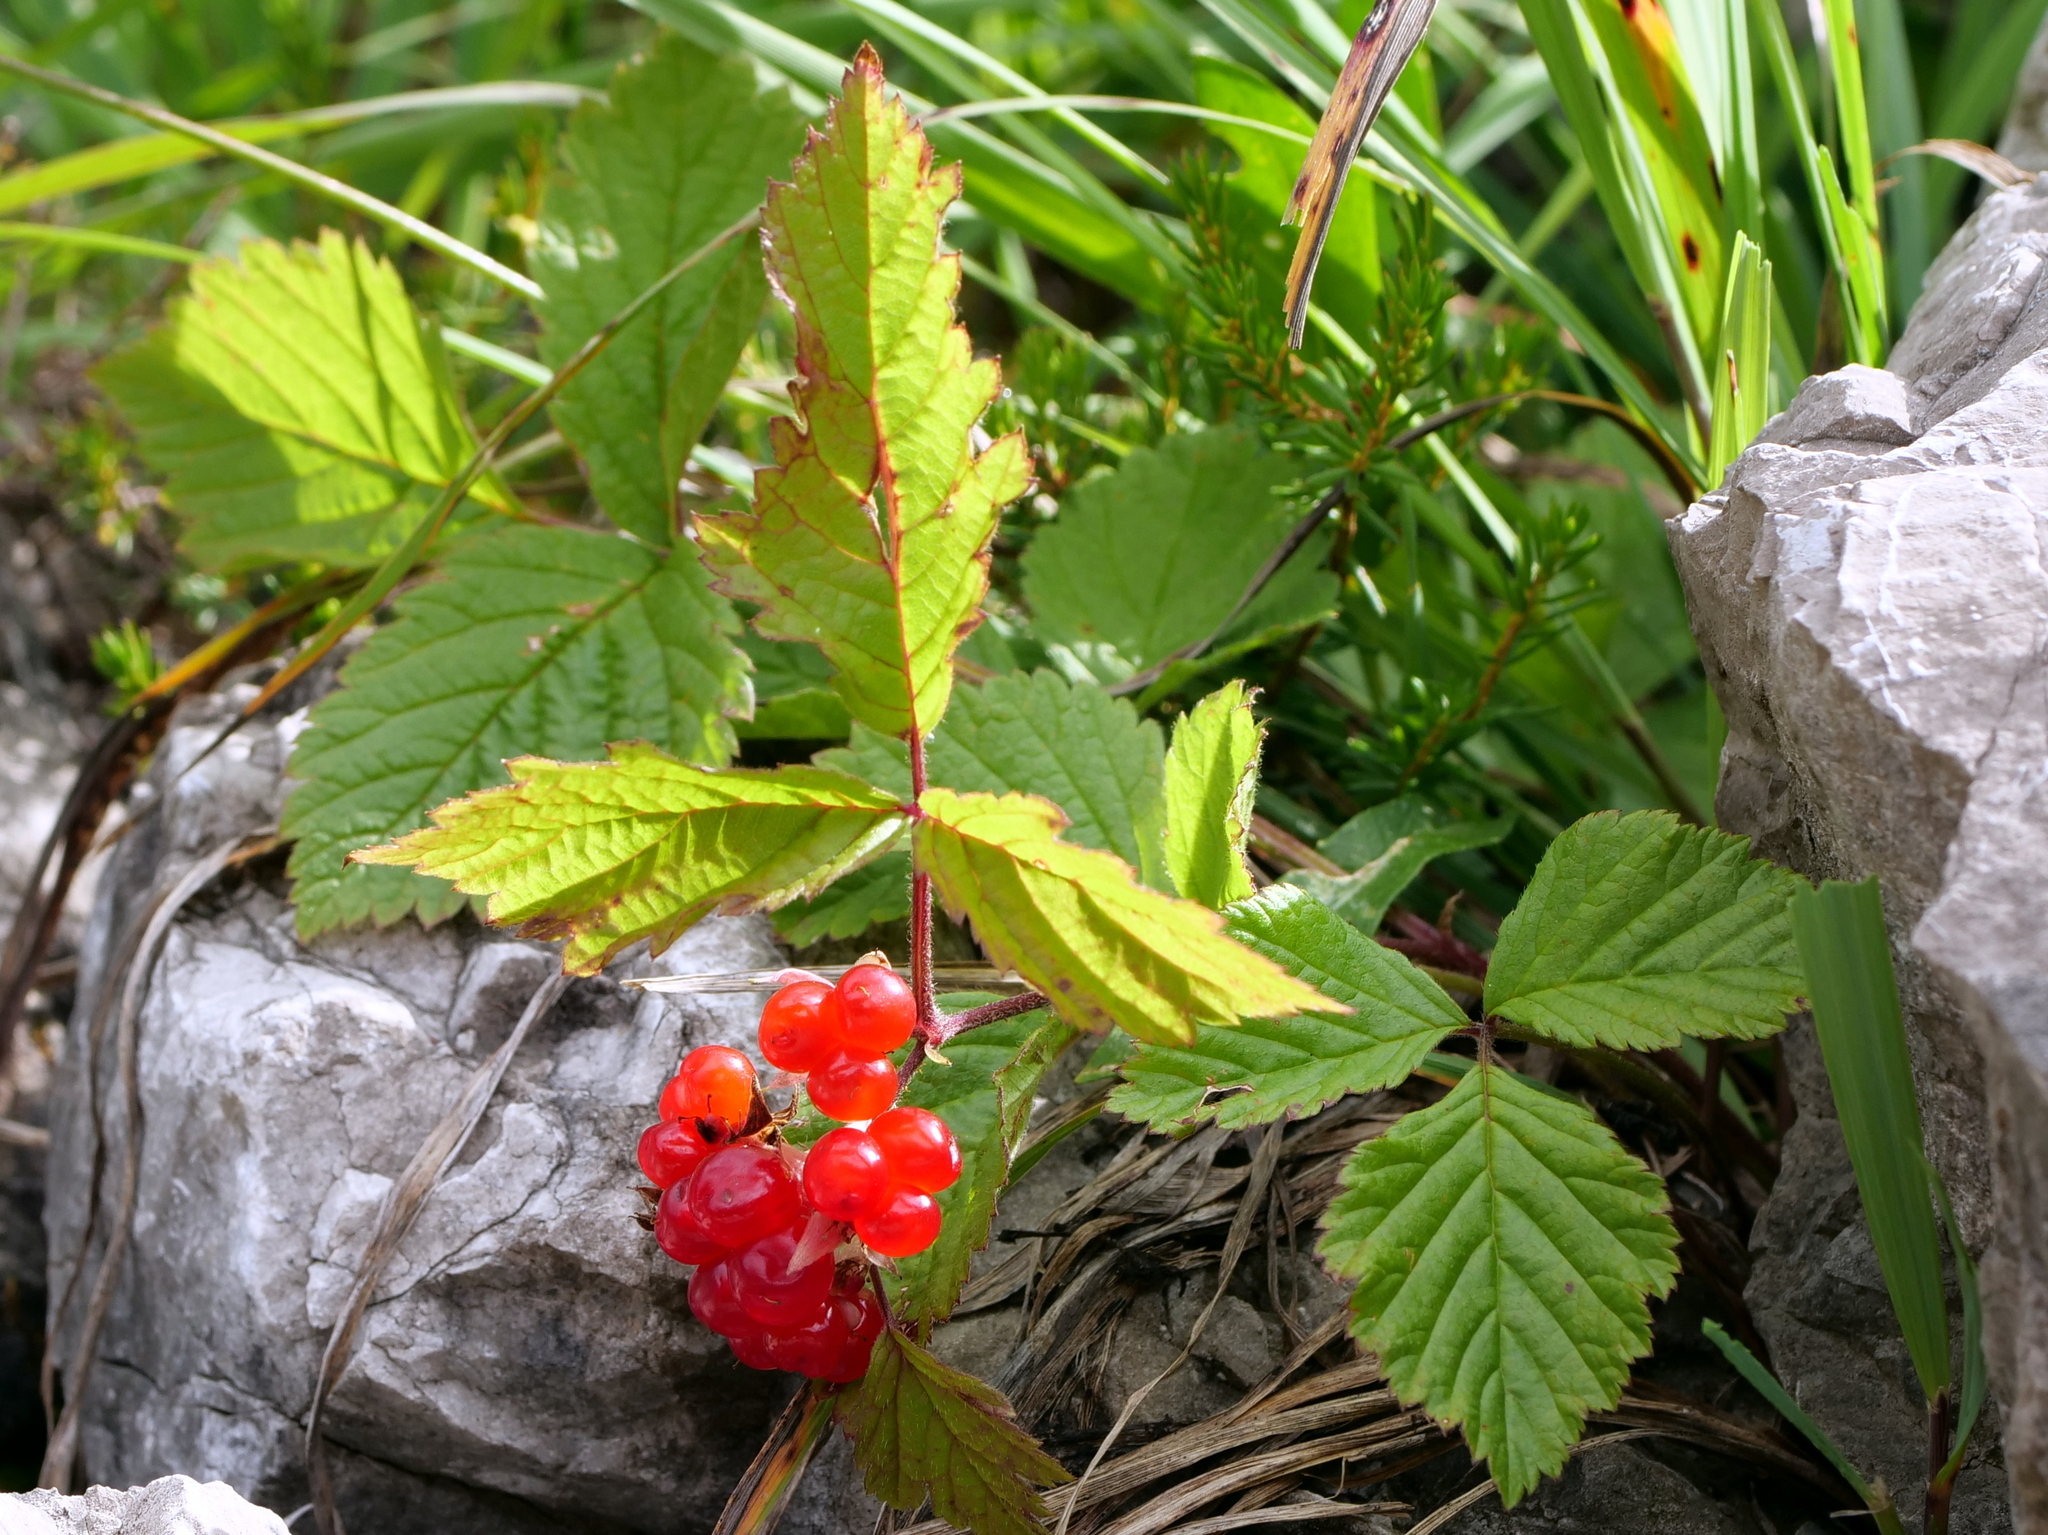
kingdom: Plantae
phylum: Tracheophyta
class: Magnoliopsida
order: Rosales
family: Rosaceae
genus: Rubus
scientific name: Rubus saxatilis
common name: Stone bramble
